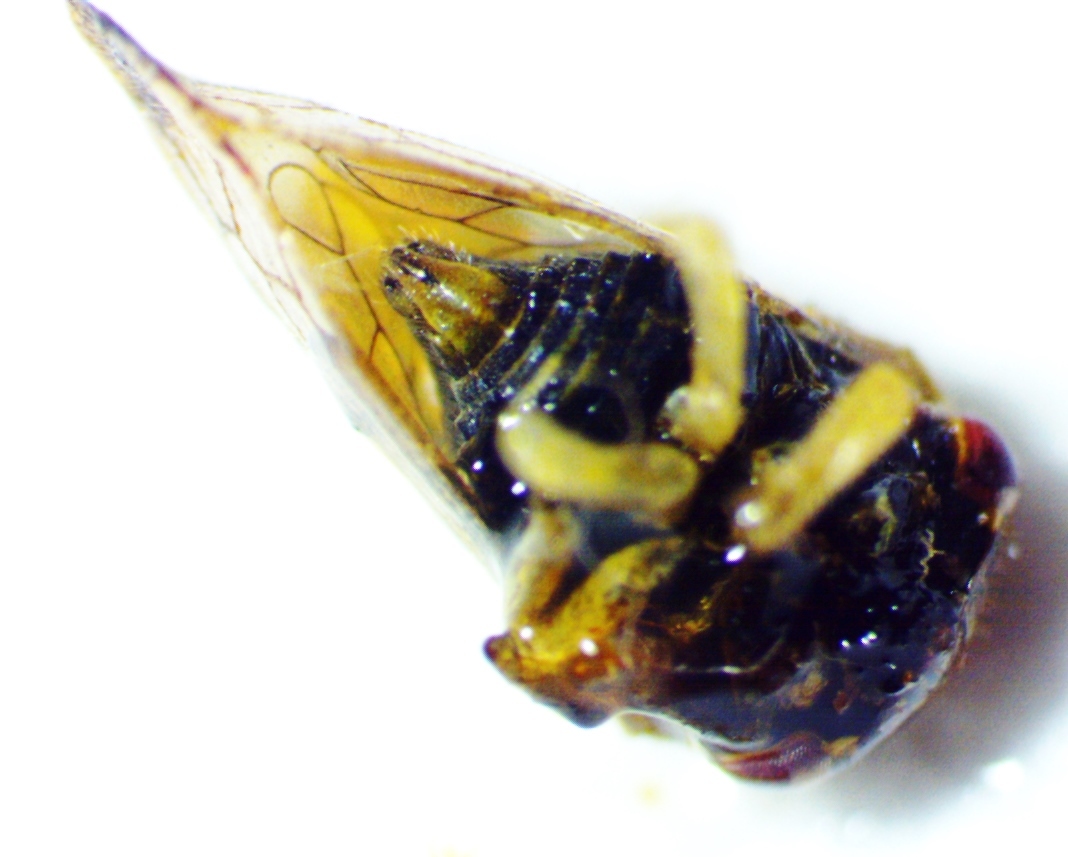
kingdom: Animalia
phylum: Arthropoda
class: Insecta
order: Hemiptera
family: Membracidae
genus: Cyrtolobus
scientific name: Cyrtolobus togatus
